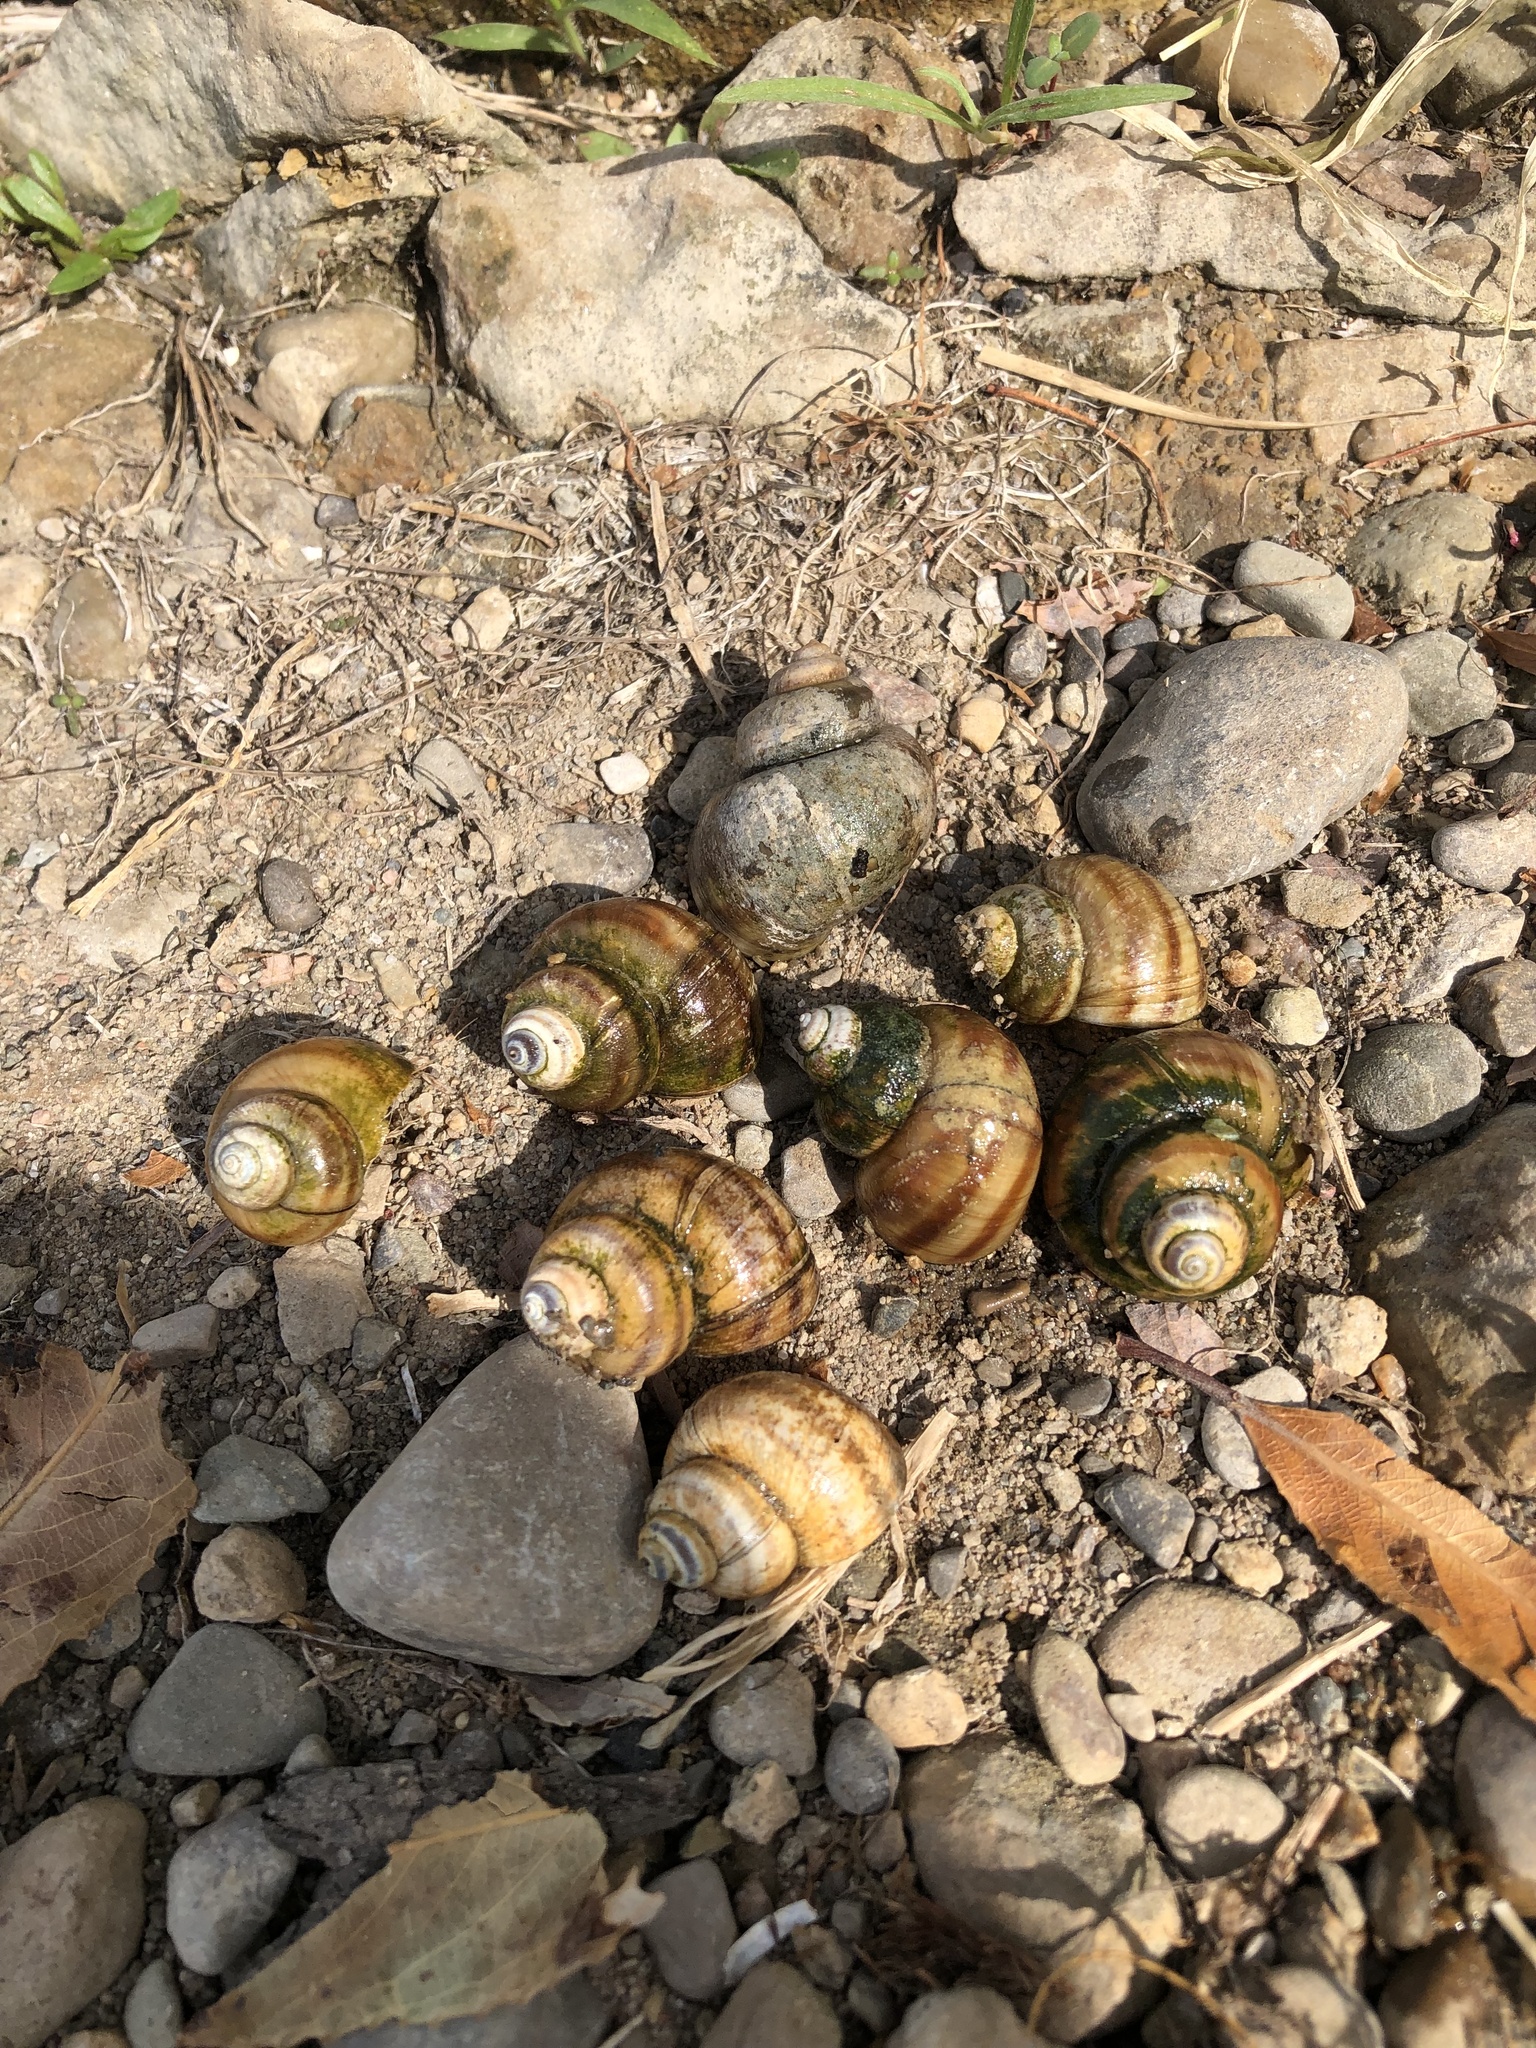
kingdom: Animalia
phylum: Mollusca
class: Gastropoda
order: Architaenioglossa
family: Viviparidae
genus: Callinina
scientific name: Callinina georgiana
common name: Banded mystery snail
